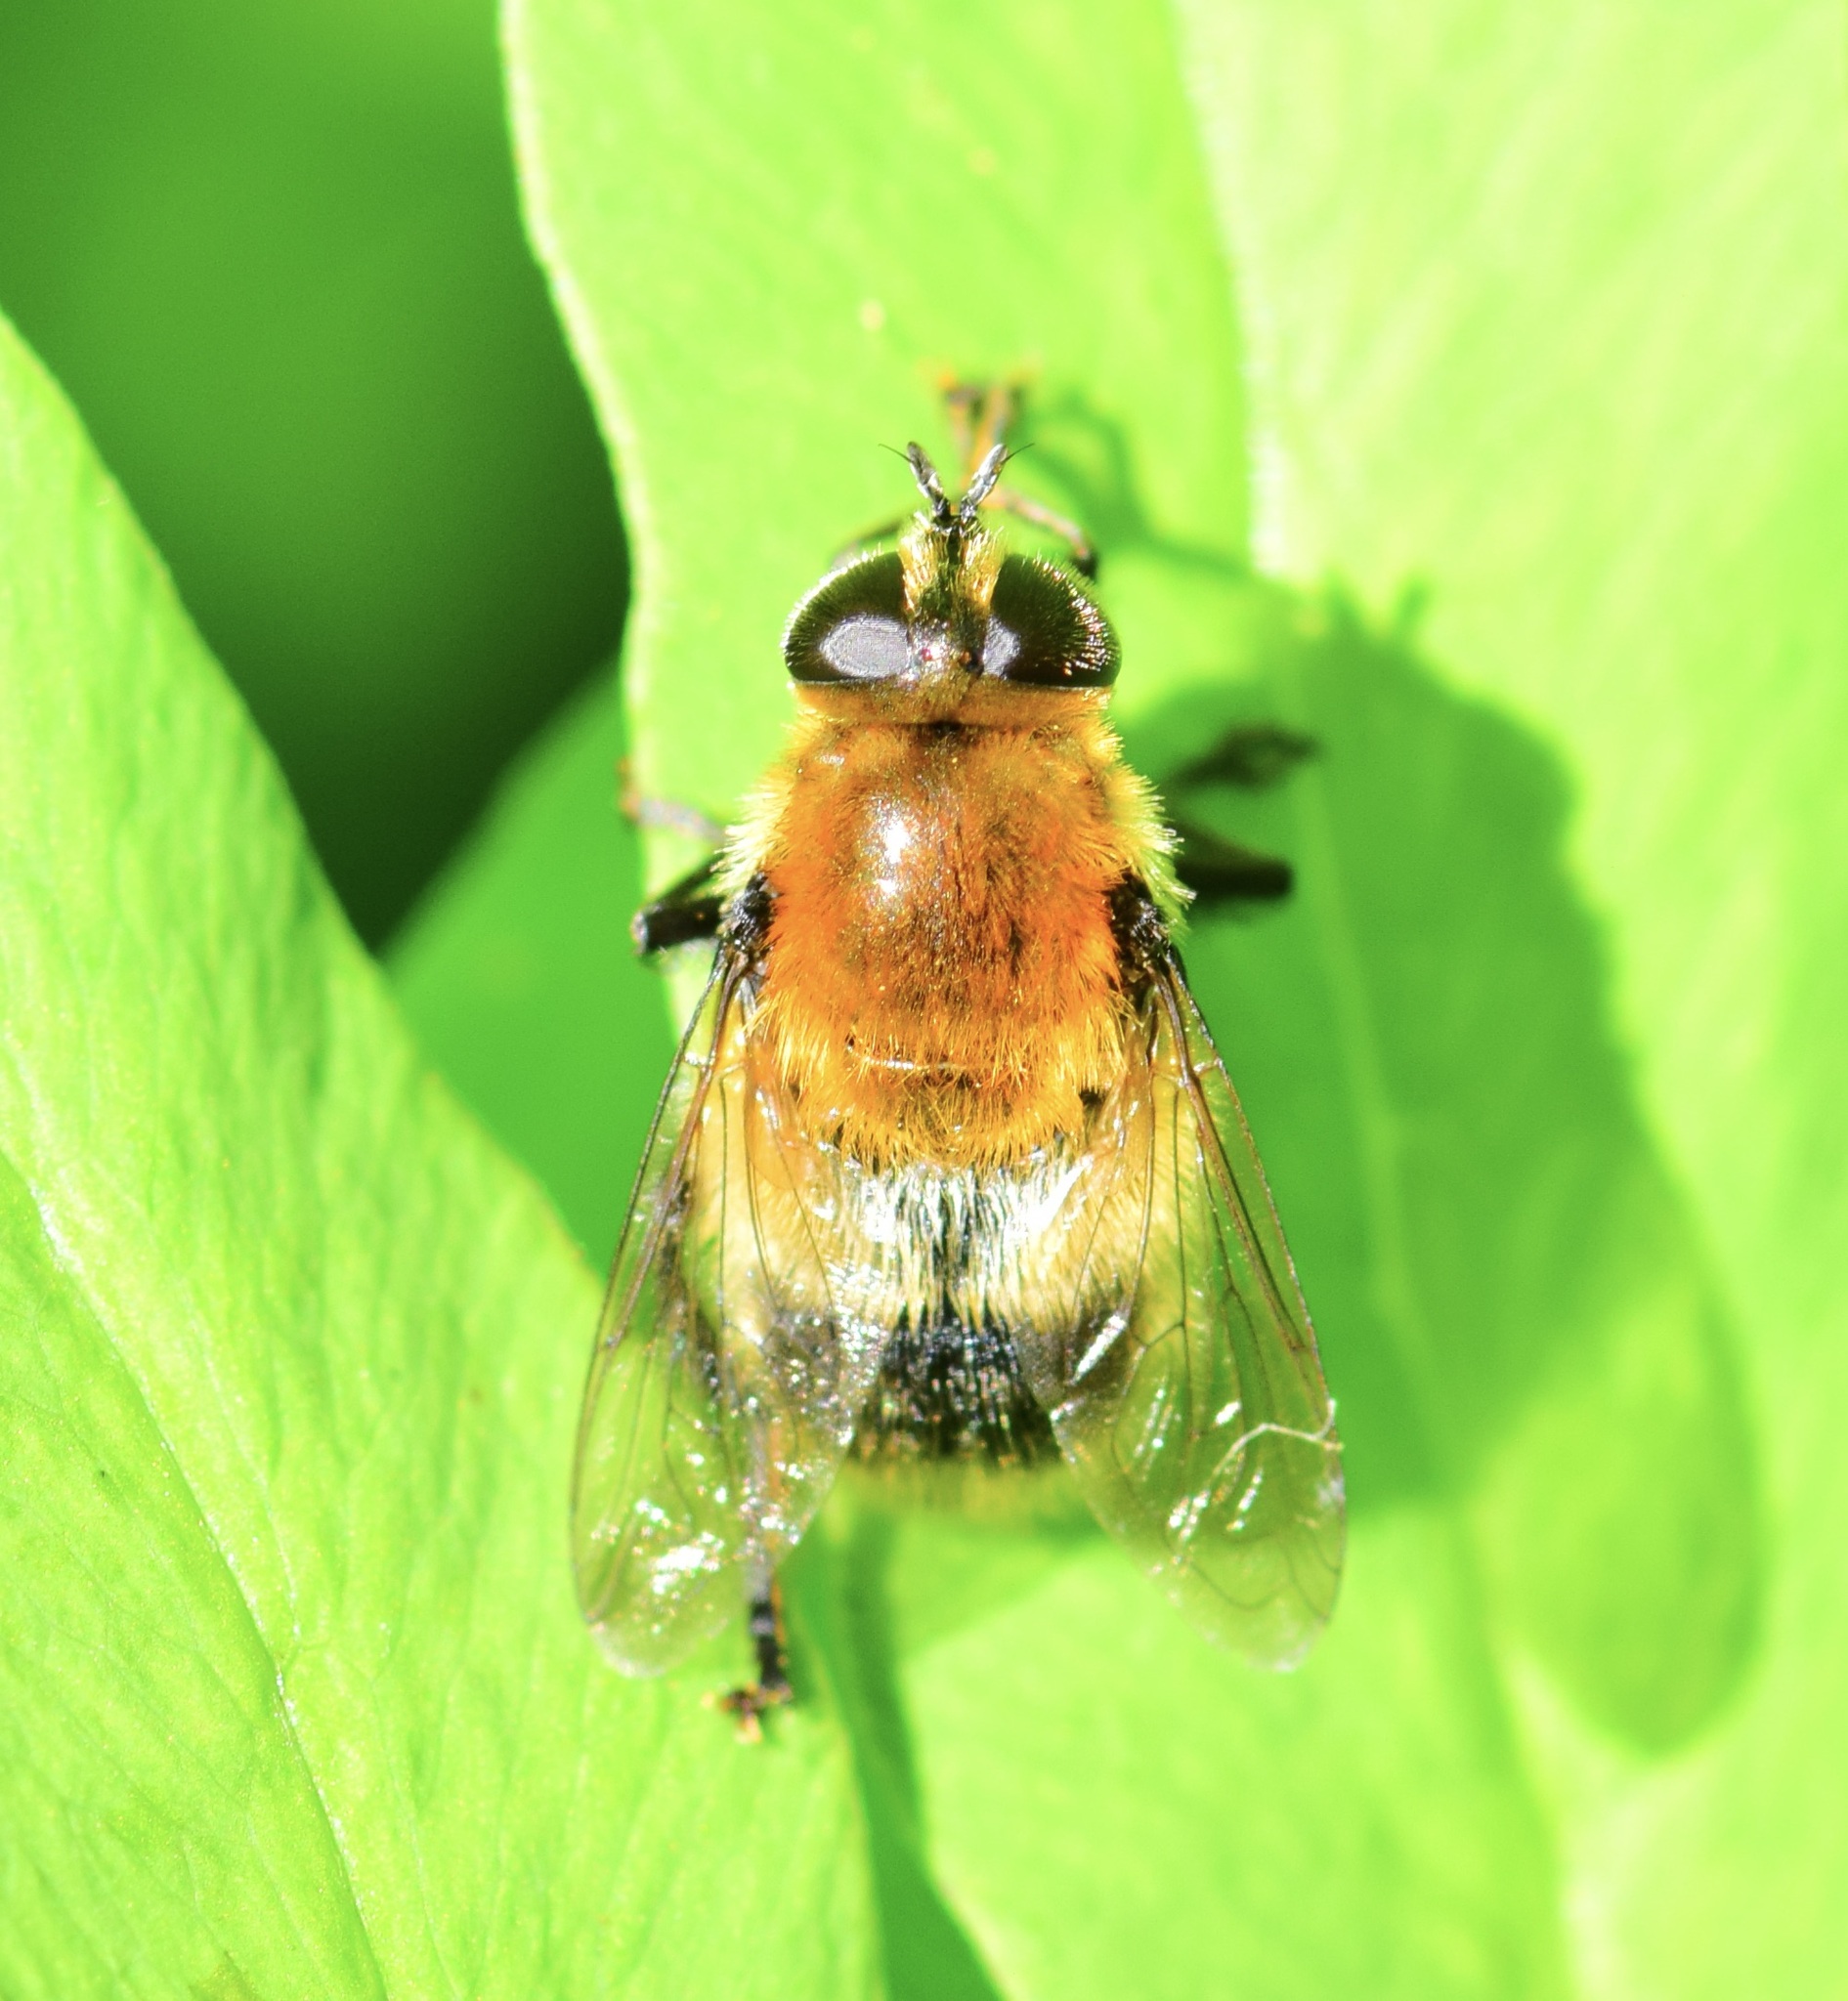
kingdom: Animalia
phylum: Arthropoda
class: Insecta
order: Diptera
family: Syrphidae
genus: Merodon
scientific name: Merodon equestris
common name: Greater bulb-fly
